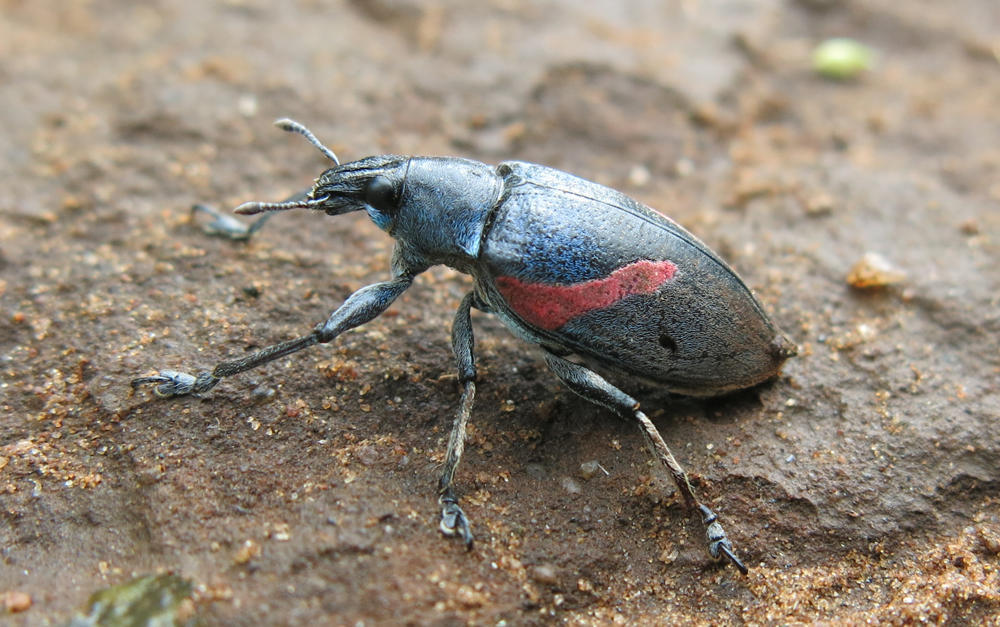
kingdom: Animalia
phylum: Arthropoda
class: Insecta
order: Coleoptera
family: Curculionidae
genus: Polyclaeis
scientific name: Polyclaeis equestris
